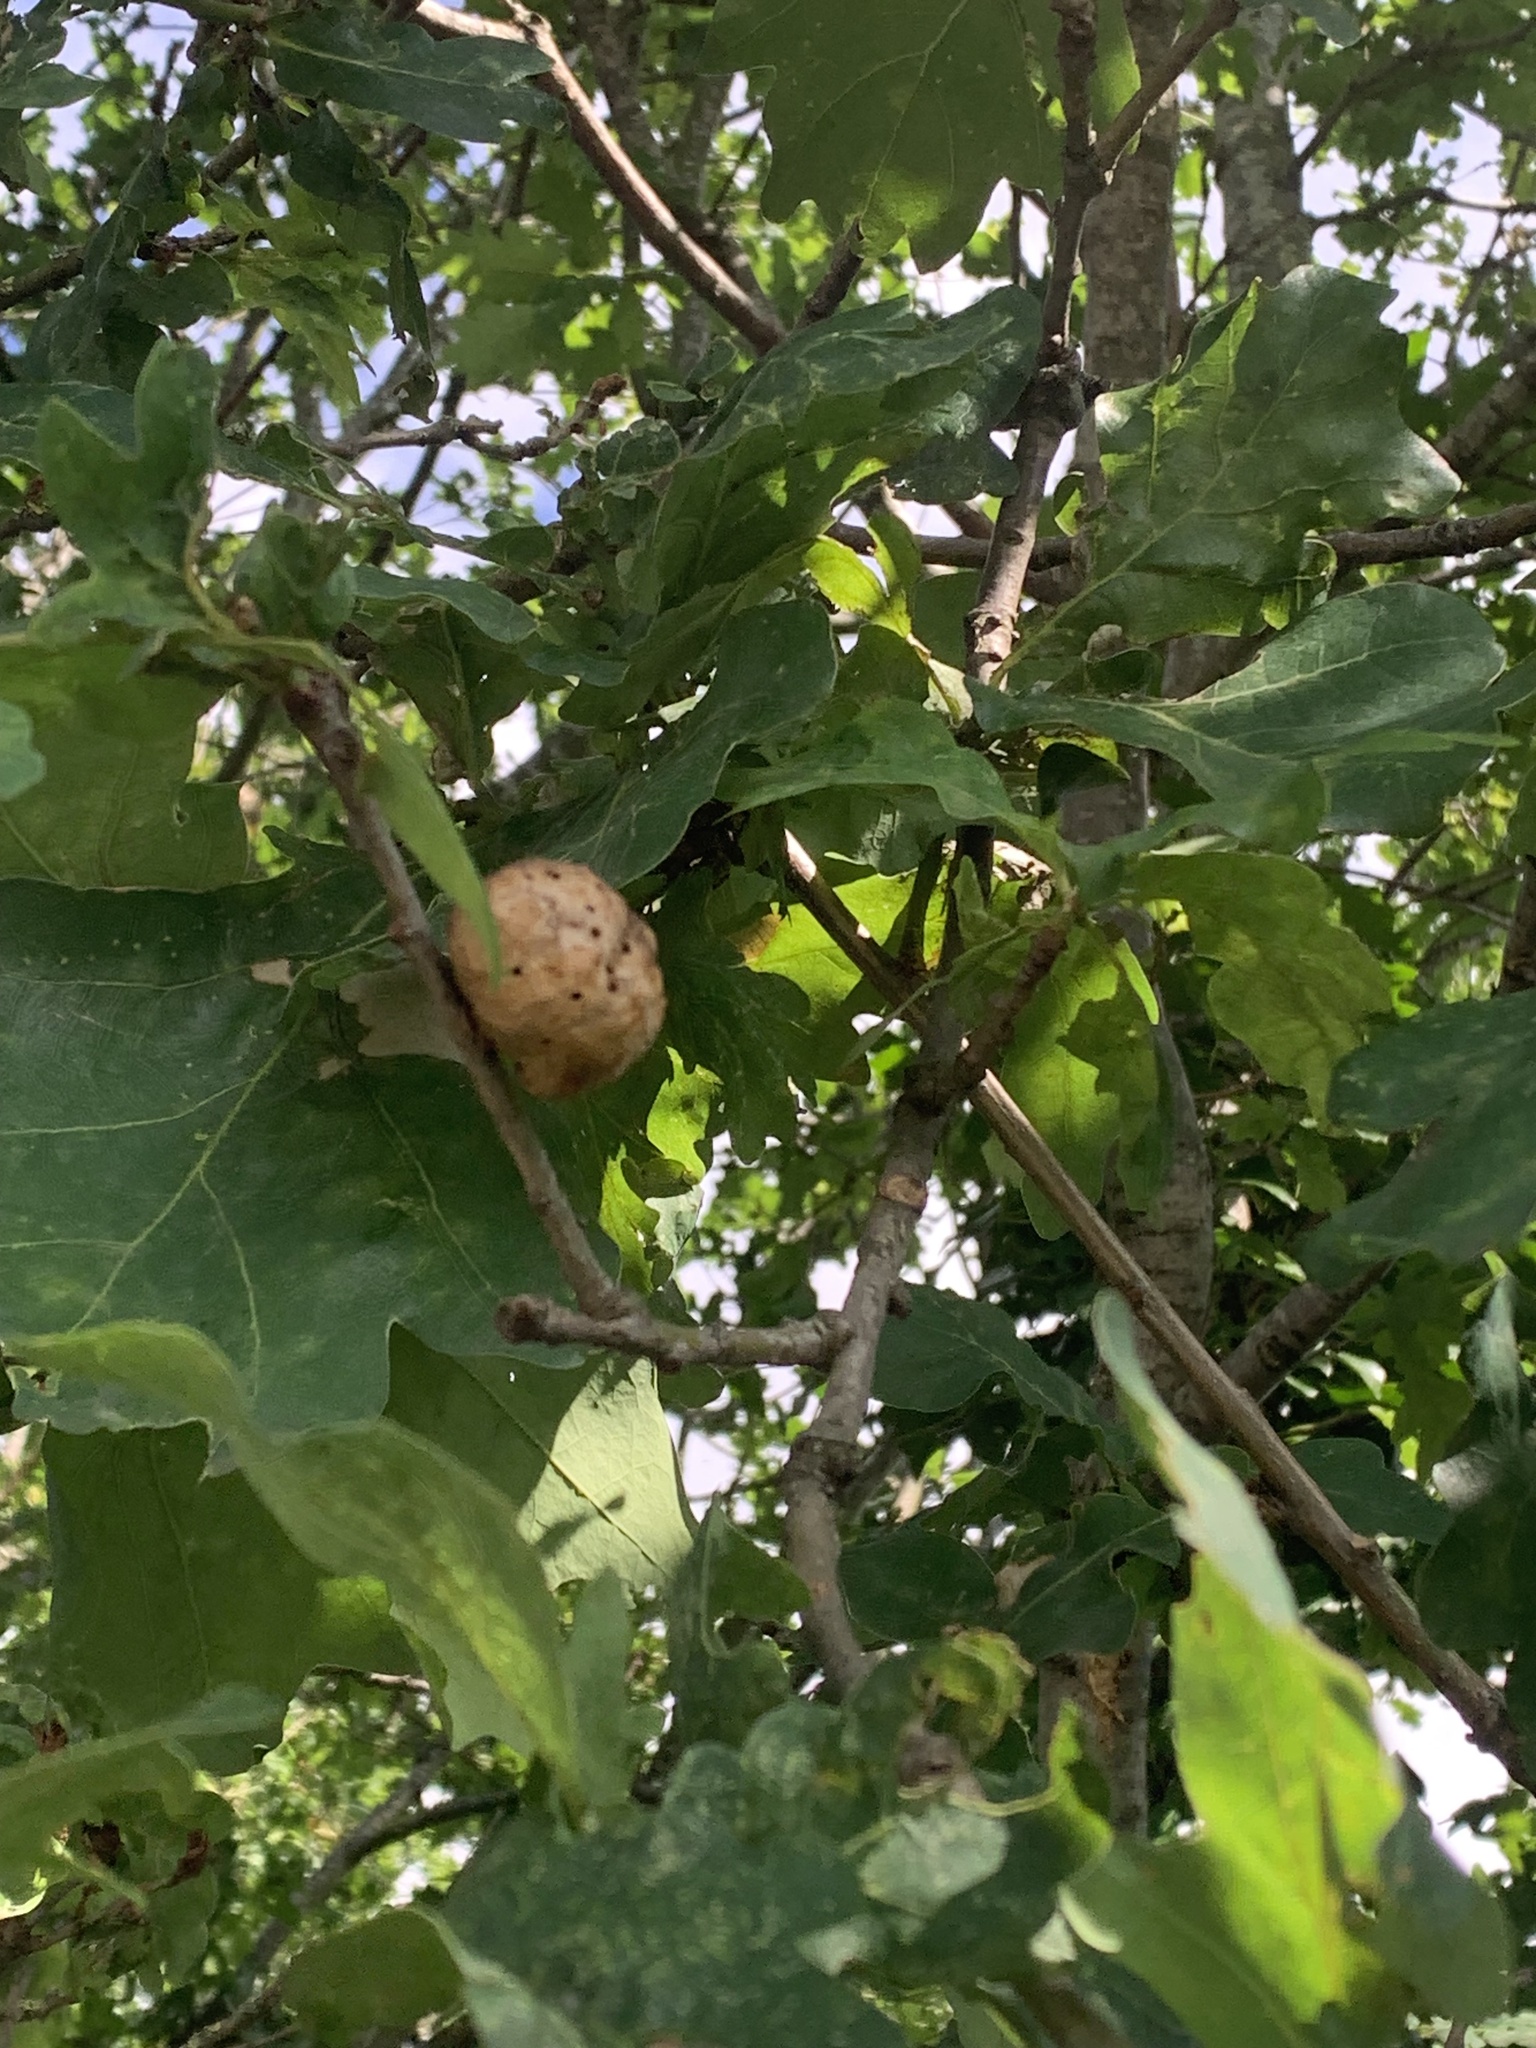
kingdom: Animalia
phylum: Arthropoda
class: Insecta
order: Hymenoptera
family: Cynipidae
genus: Biorhiza
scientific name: Biorhiza pallida
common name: Oak apple
